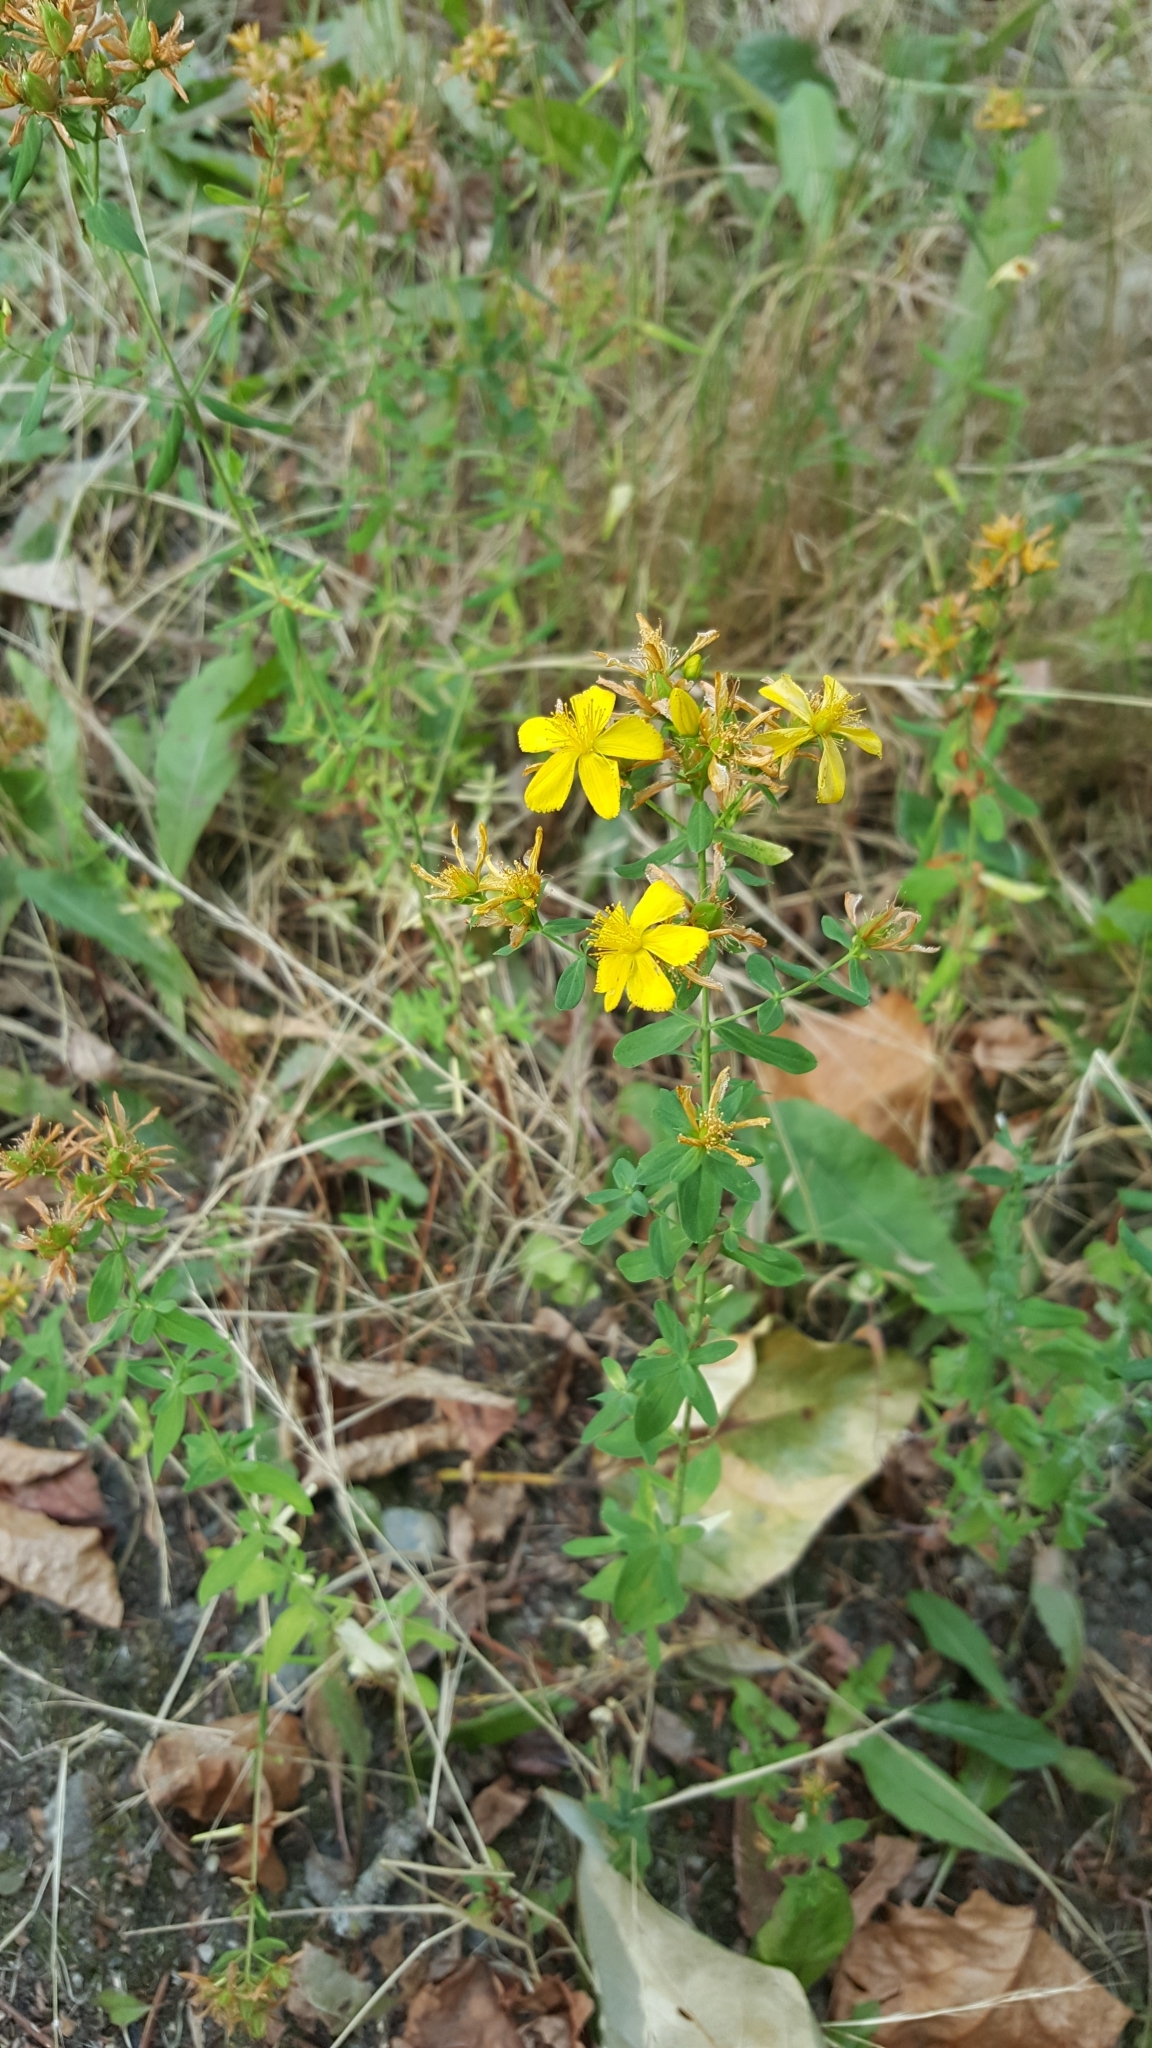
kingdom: Plantae
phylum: Tracheophyta
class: Magnoliopsida
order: Malpighiales
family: Hypericaceae
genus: Hypericum
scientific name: Hypericum perforatum
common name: Common st. johnswort
